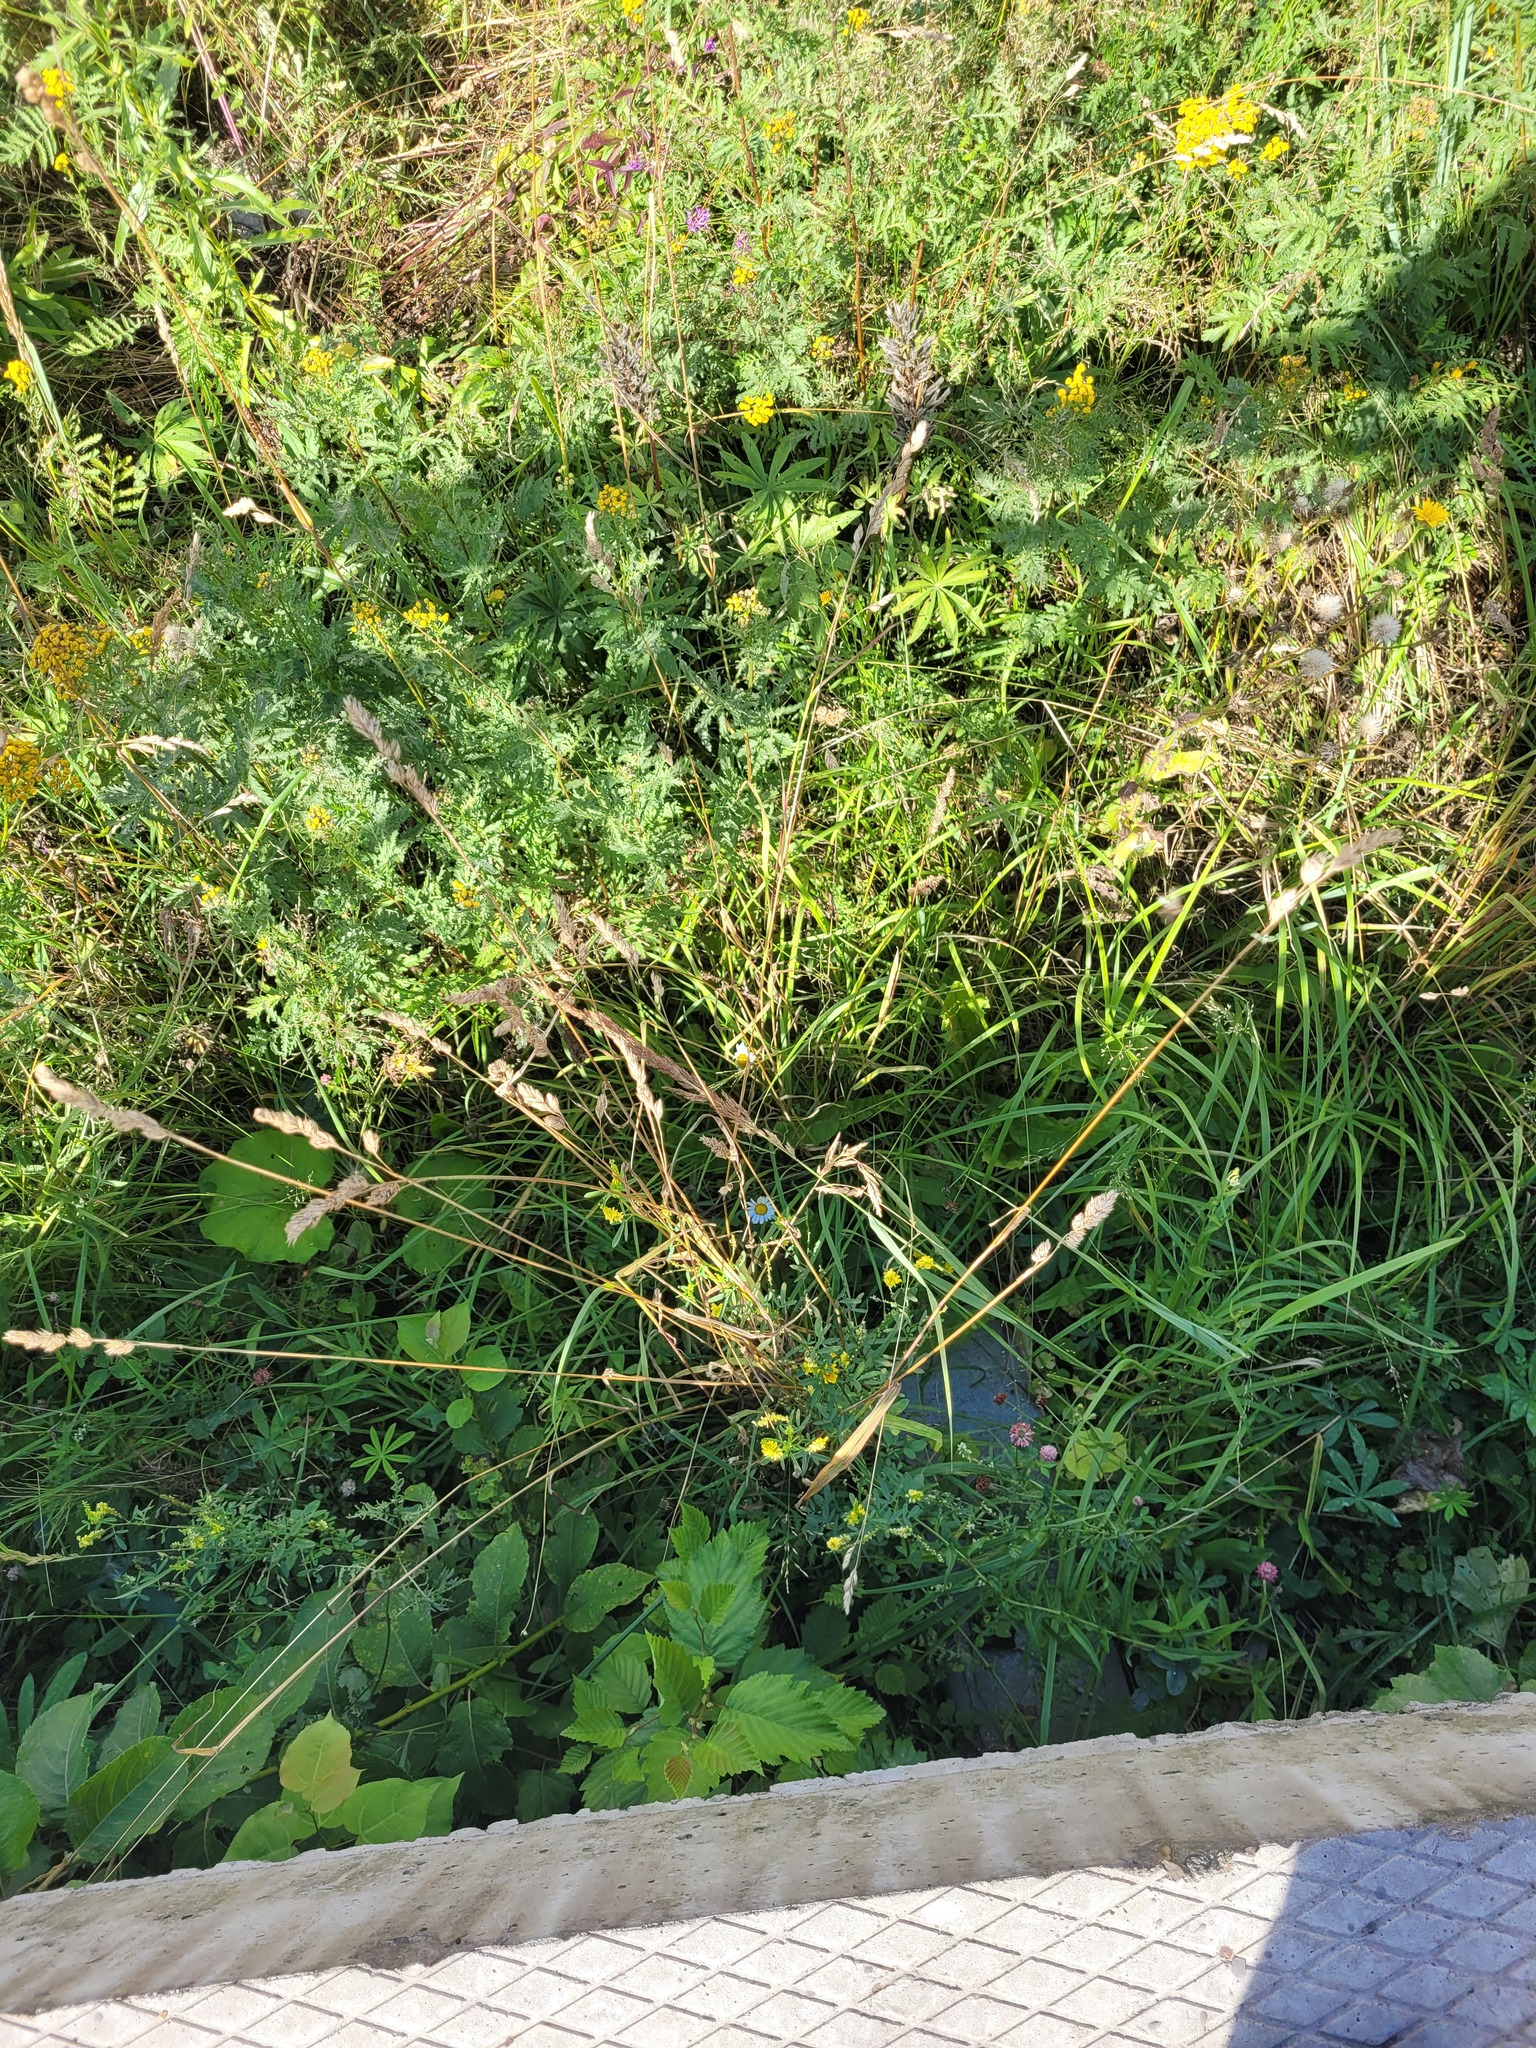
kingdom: Plantae
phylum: Tracheophyta
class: Liliopsida
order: Poales
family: Poaceae
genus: Dactylis
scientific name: Dactylis glomerata
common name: Orchardgrass
